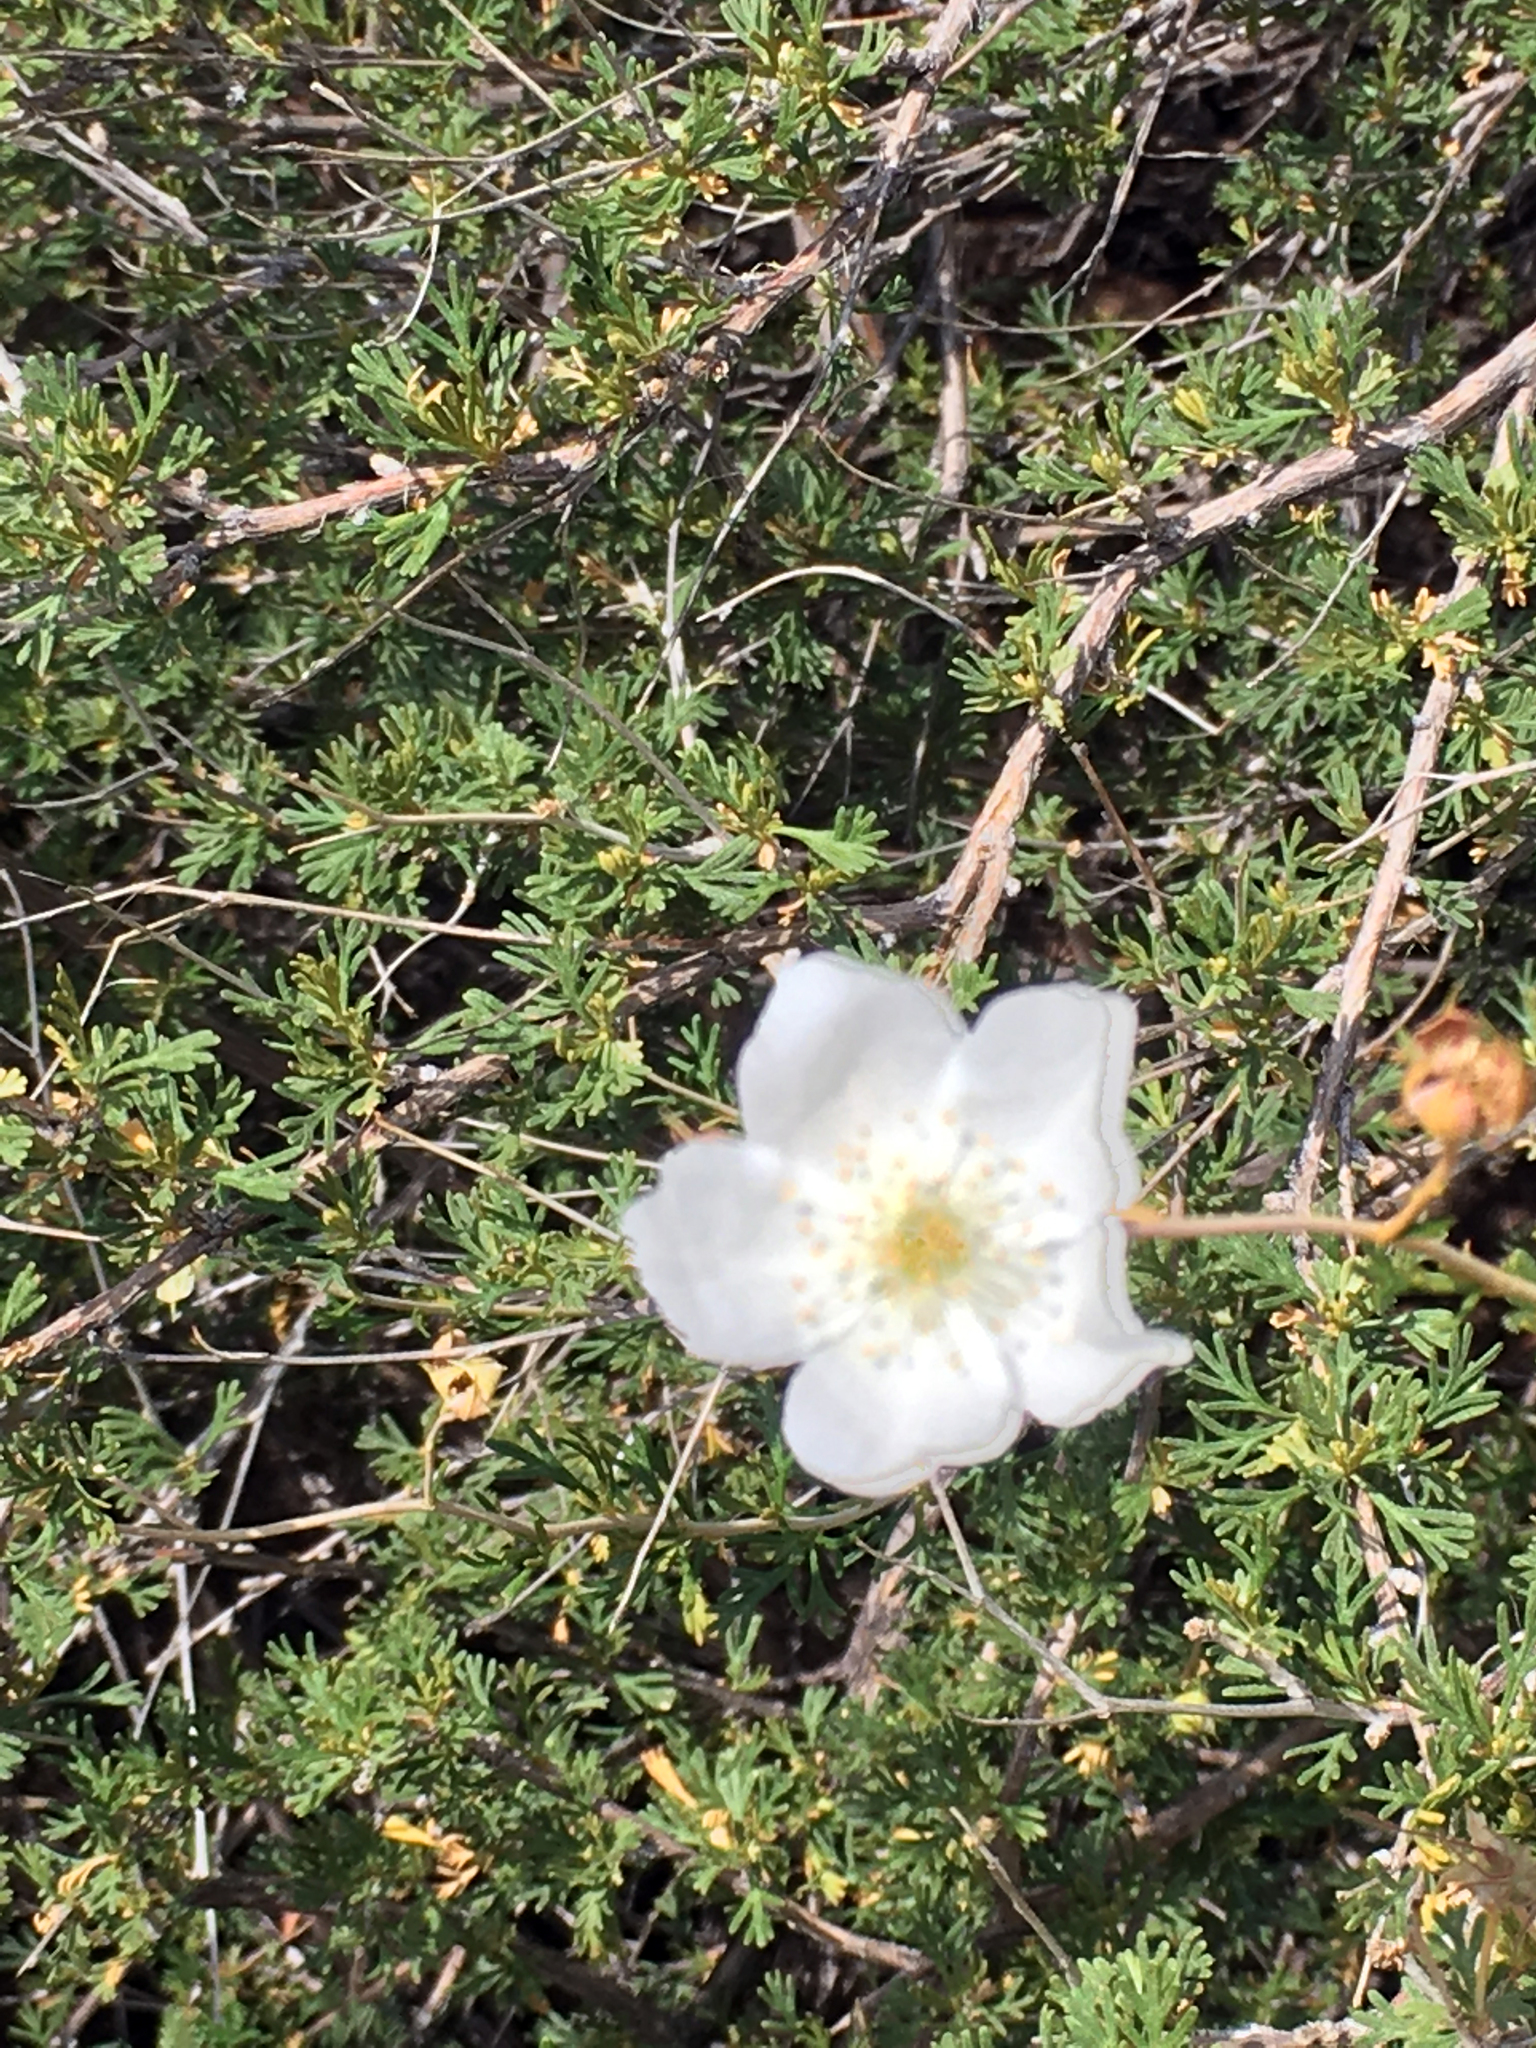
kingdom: Plantae
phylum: Tracheophyta
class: Magnoliopsida
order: Rosales
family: Rosaceae
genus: Fallugia
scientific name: Fallugia paradoxa
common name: Apache-plume
